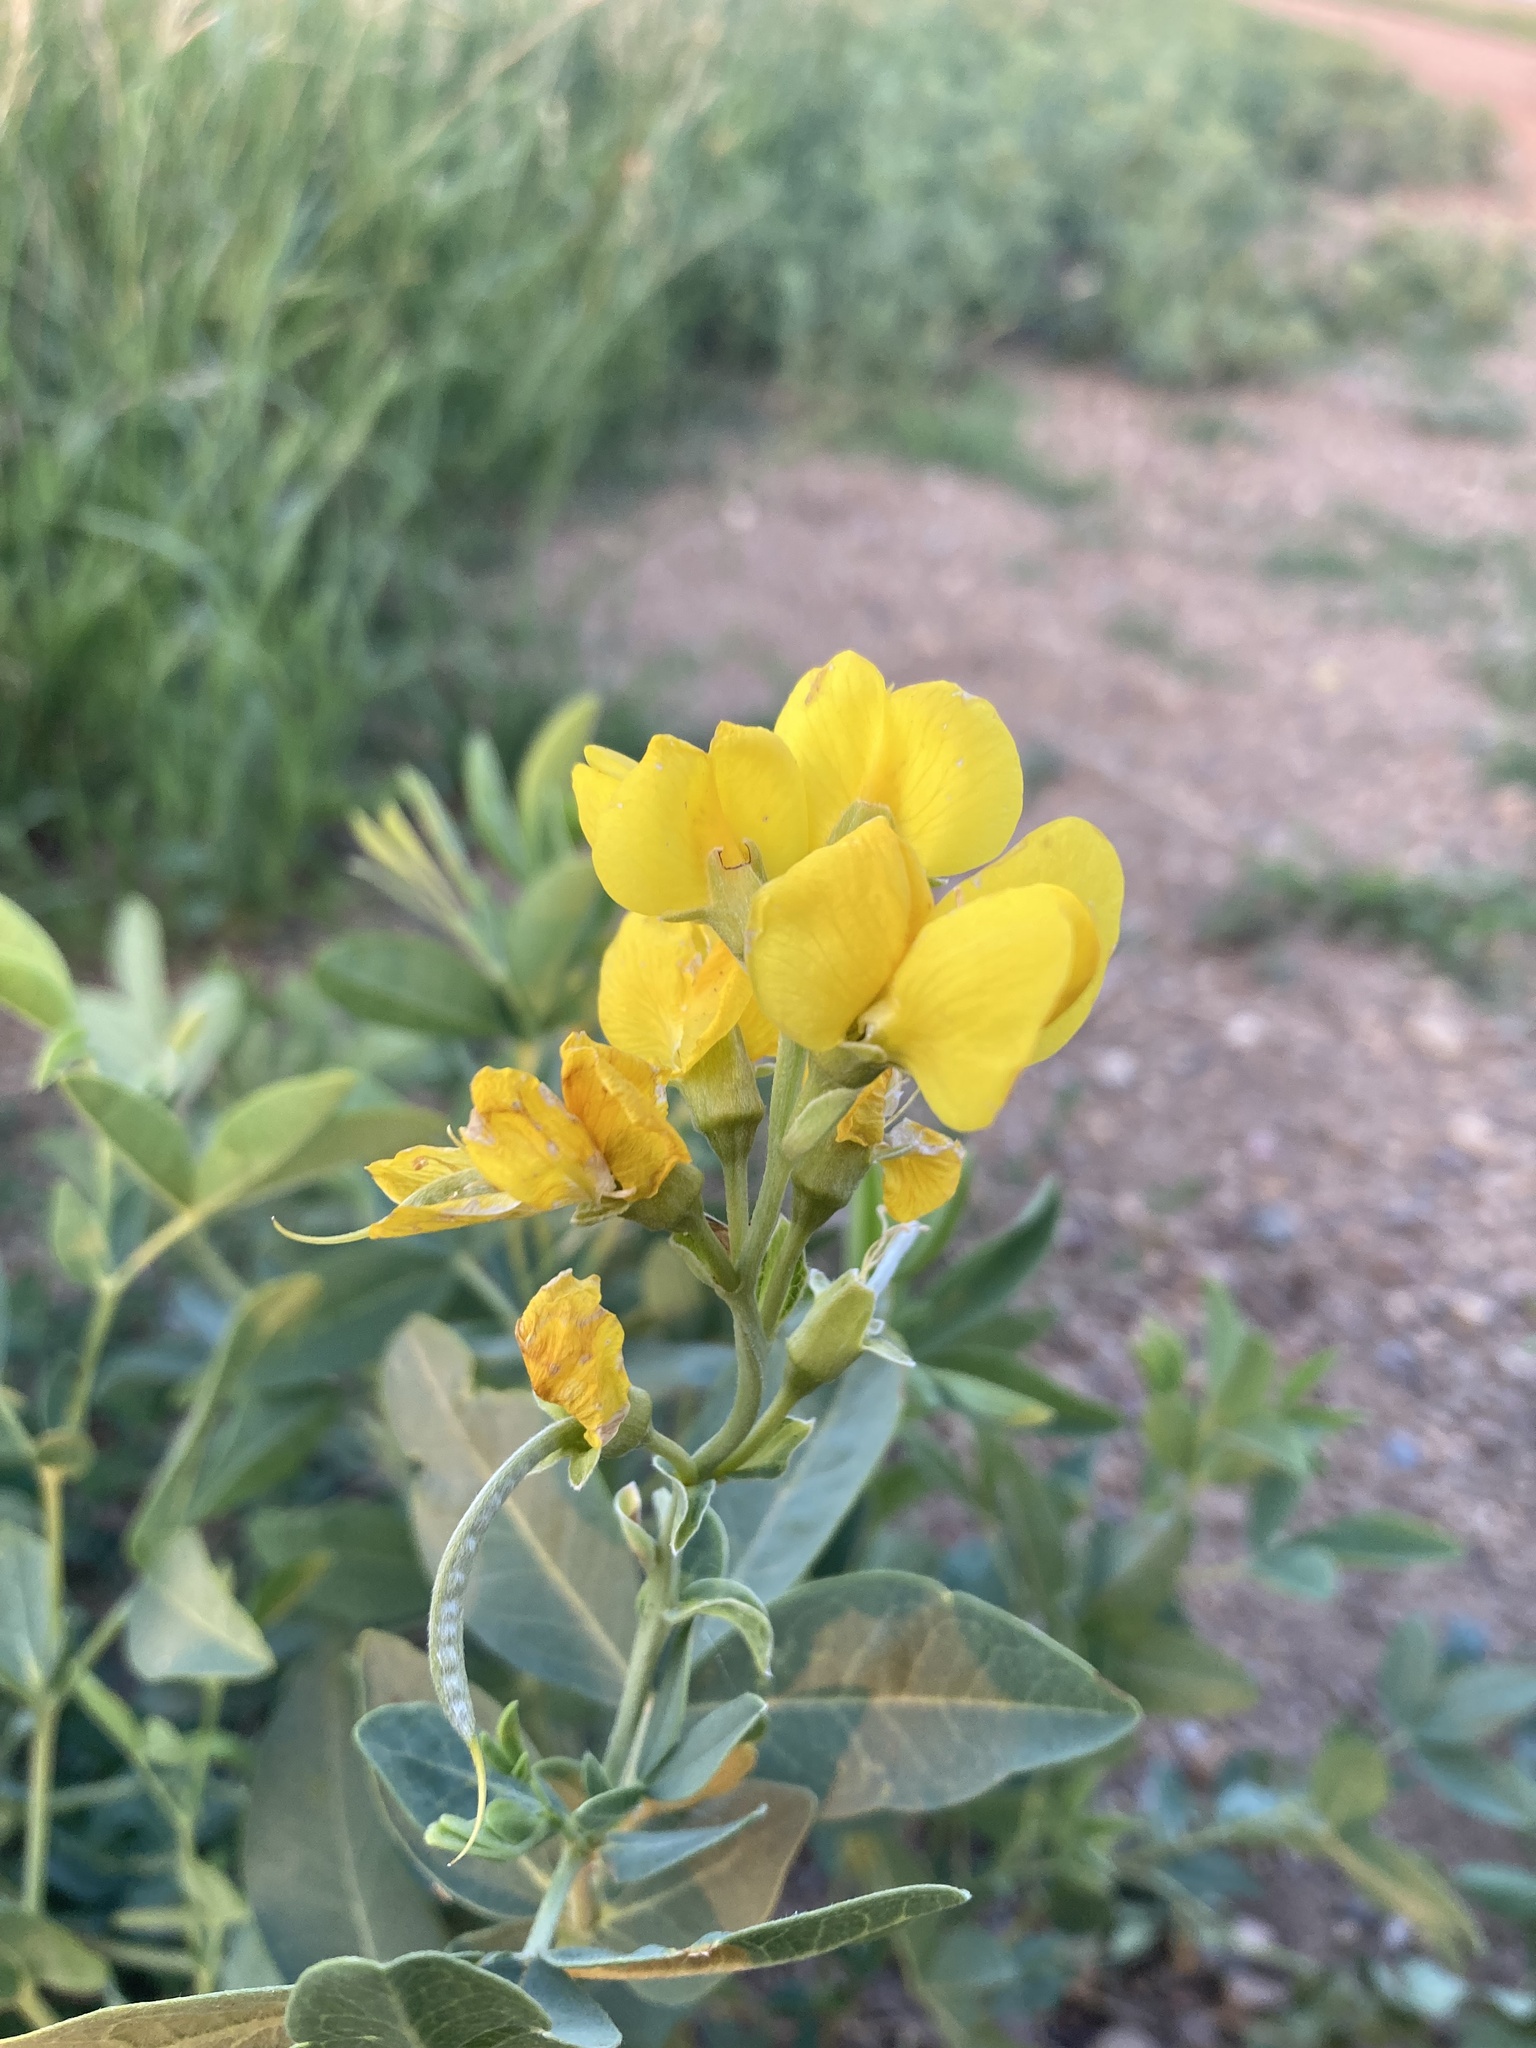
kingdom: Plantae
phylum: Tracheophyta
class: Magnoliopsida
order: Fabales
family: Fabaceae
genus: Thermopsis
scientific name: Thermopsis rhombifolia
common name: Circle-pod-pea
